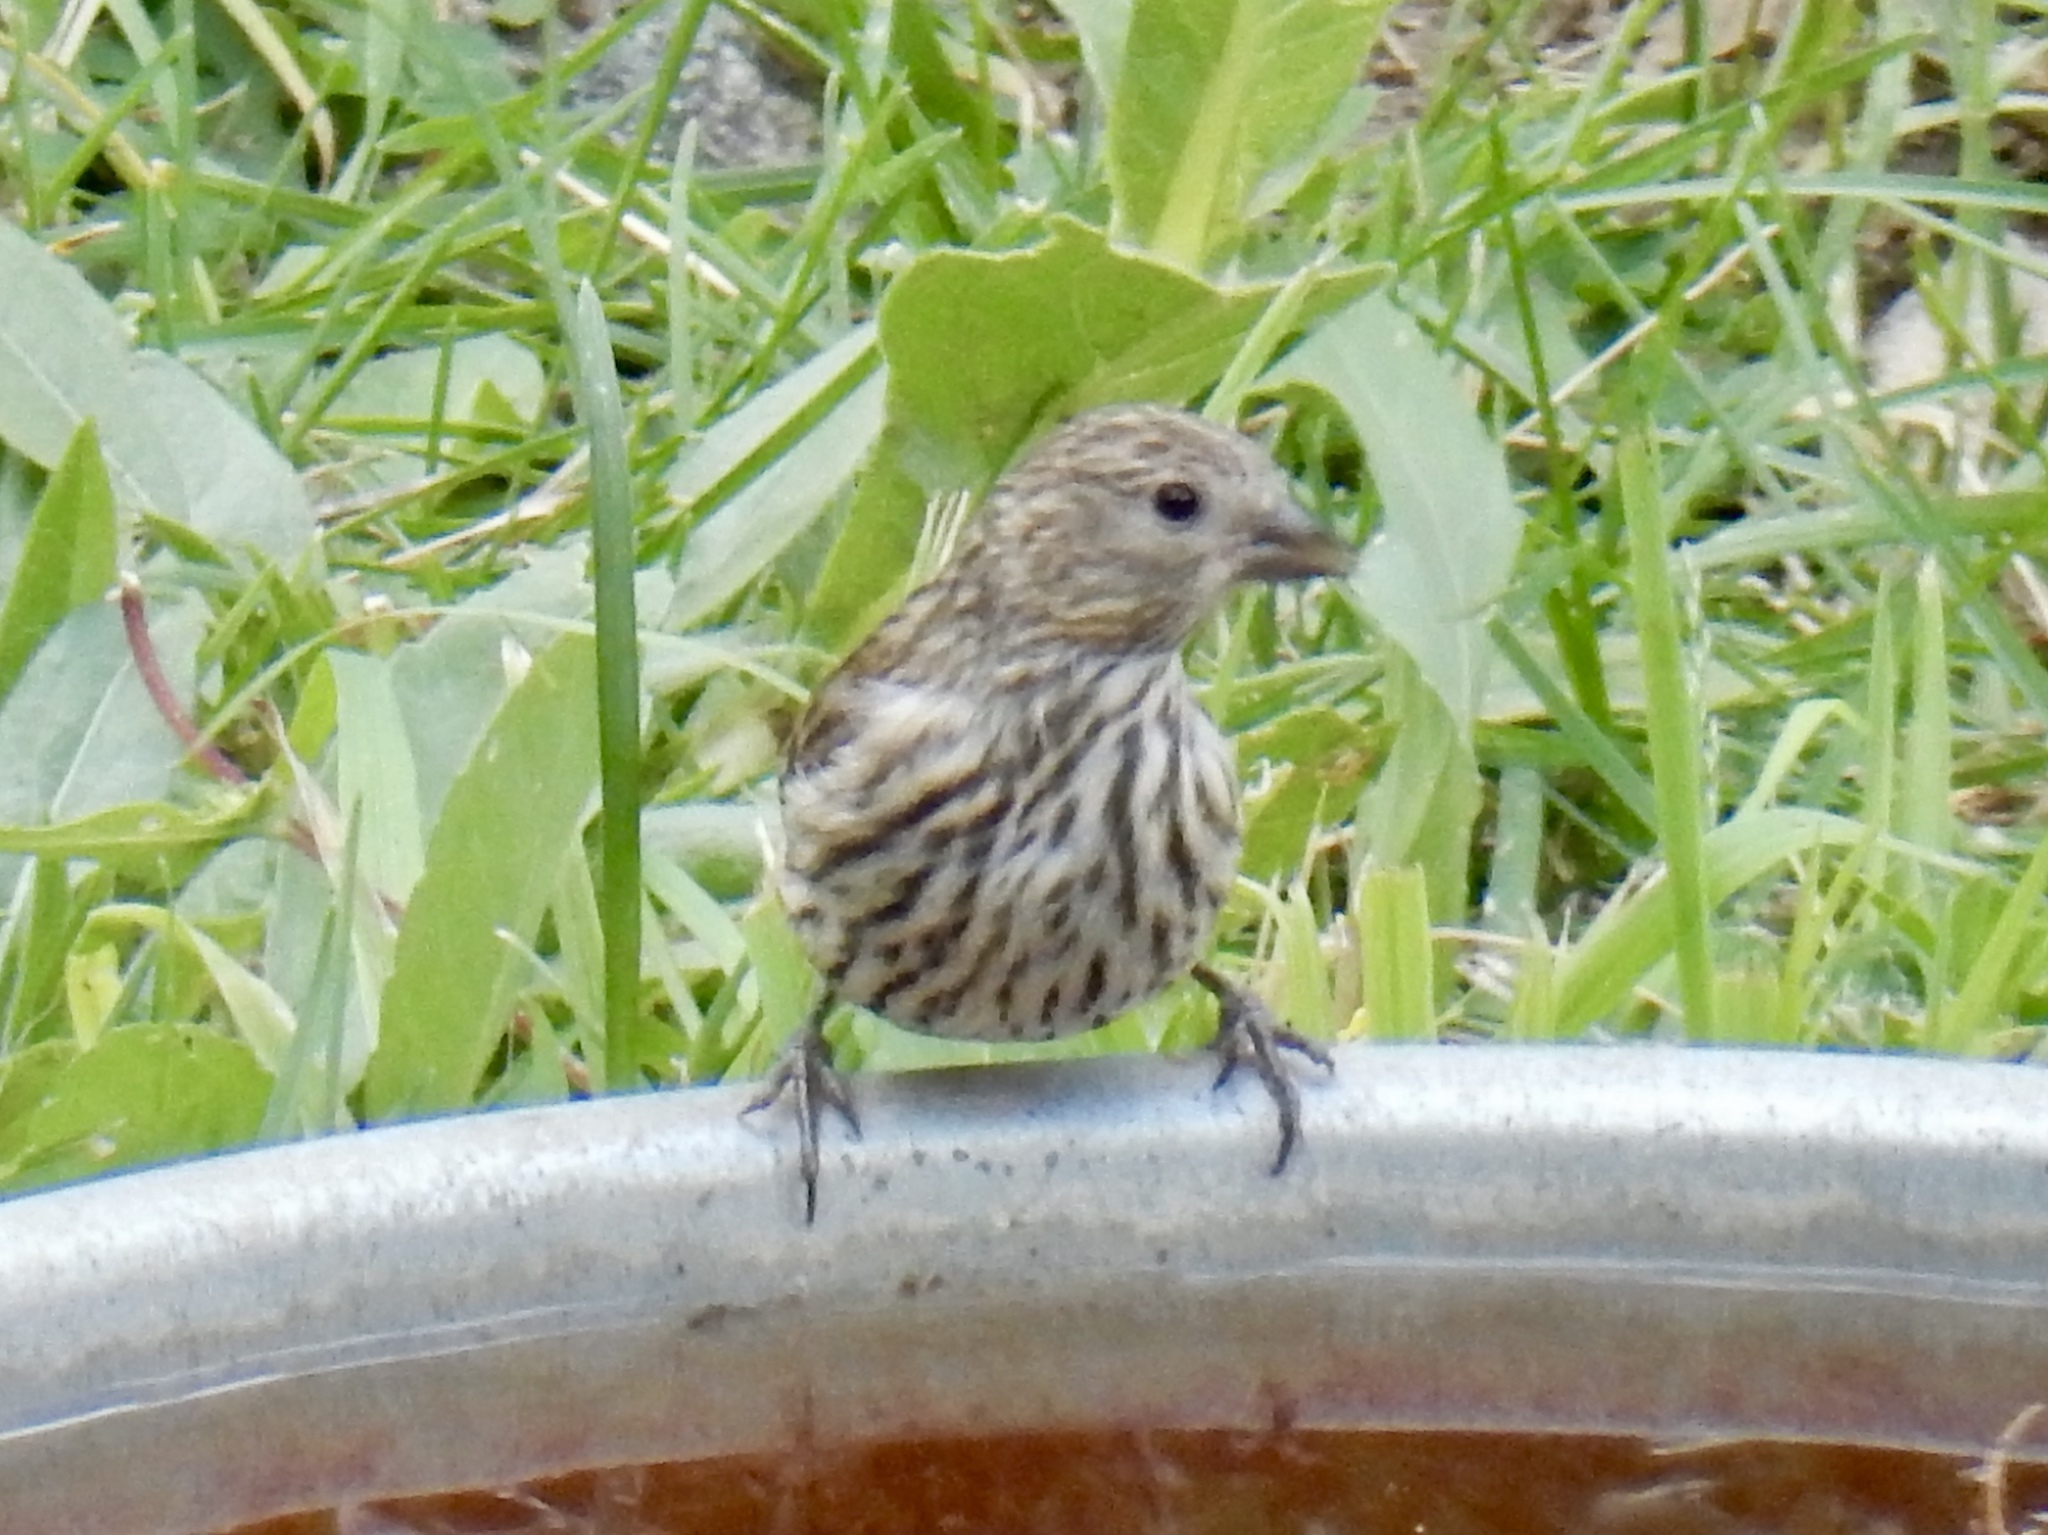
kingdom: Animalia
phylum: Chordata
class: Aves
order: Passeriformes
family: Fringillidae
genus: Spinus
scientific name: Spinus pinus
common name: Pine siskin
